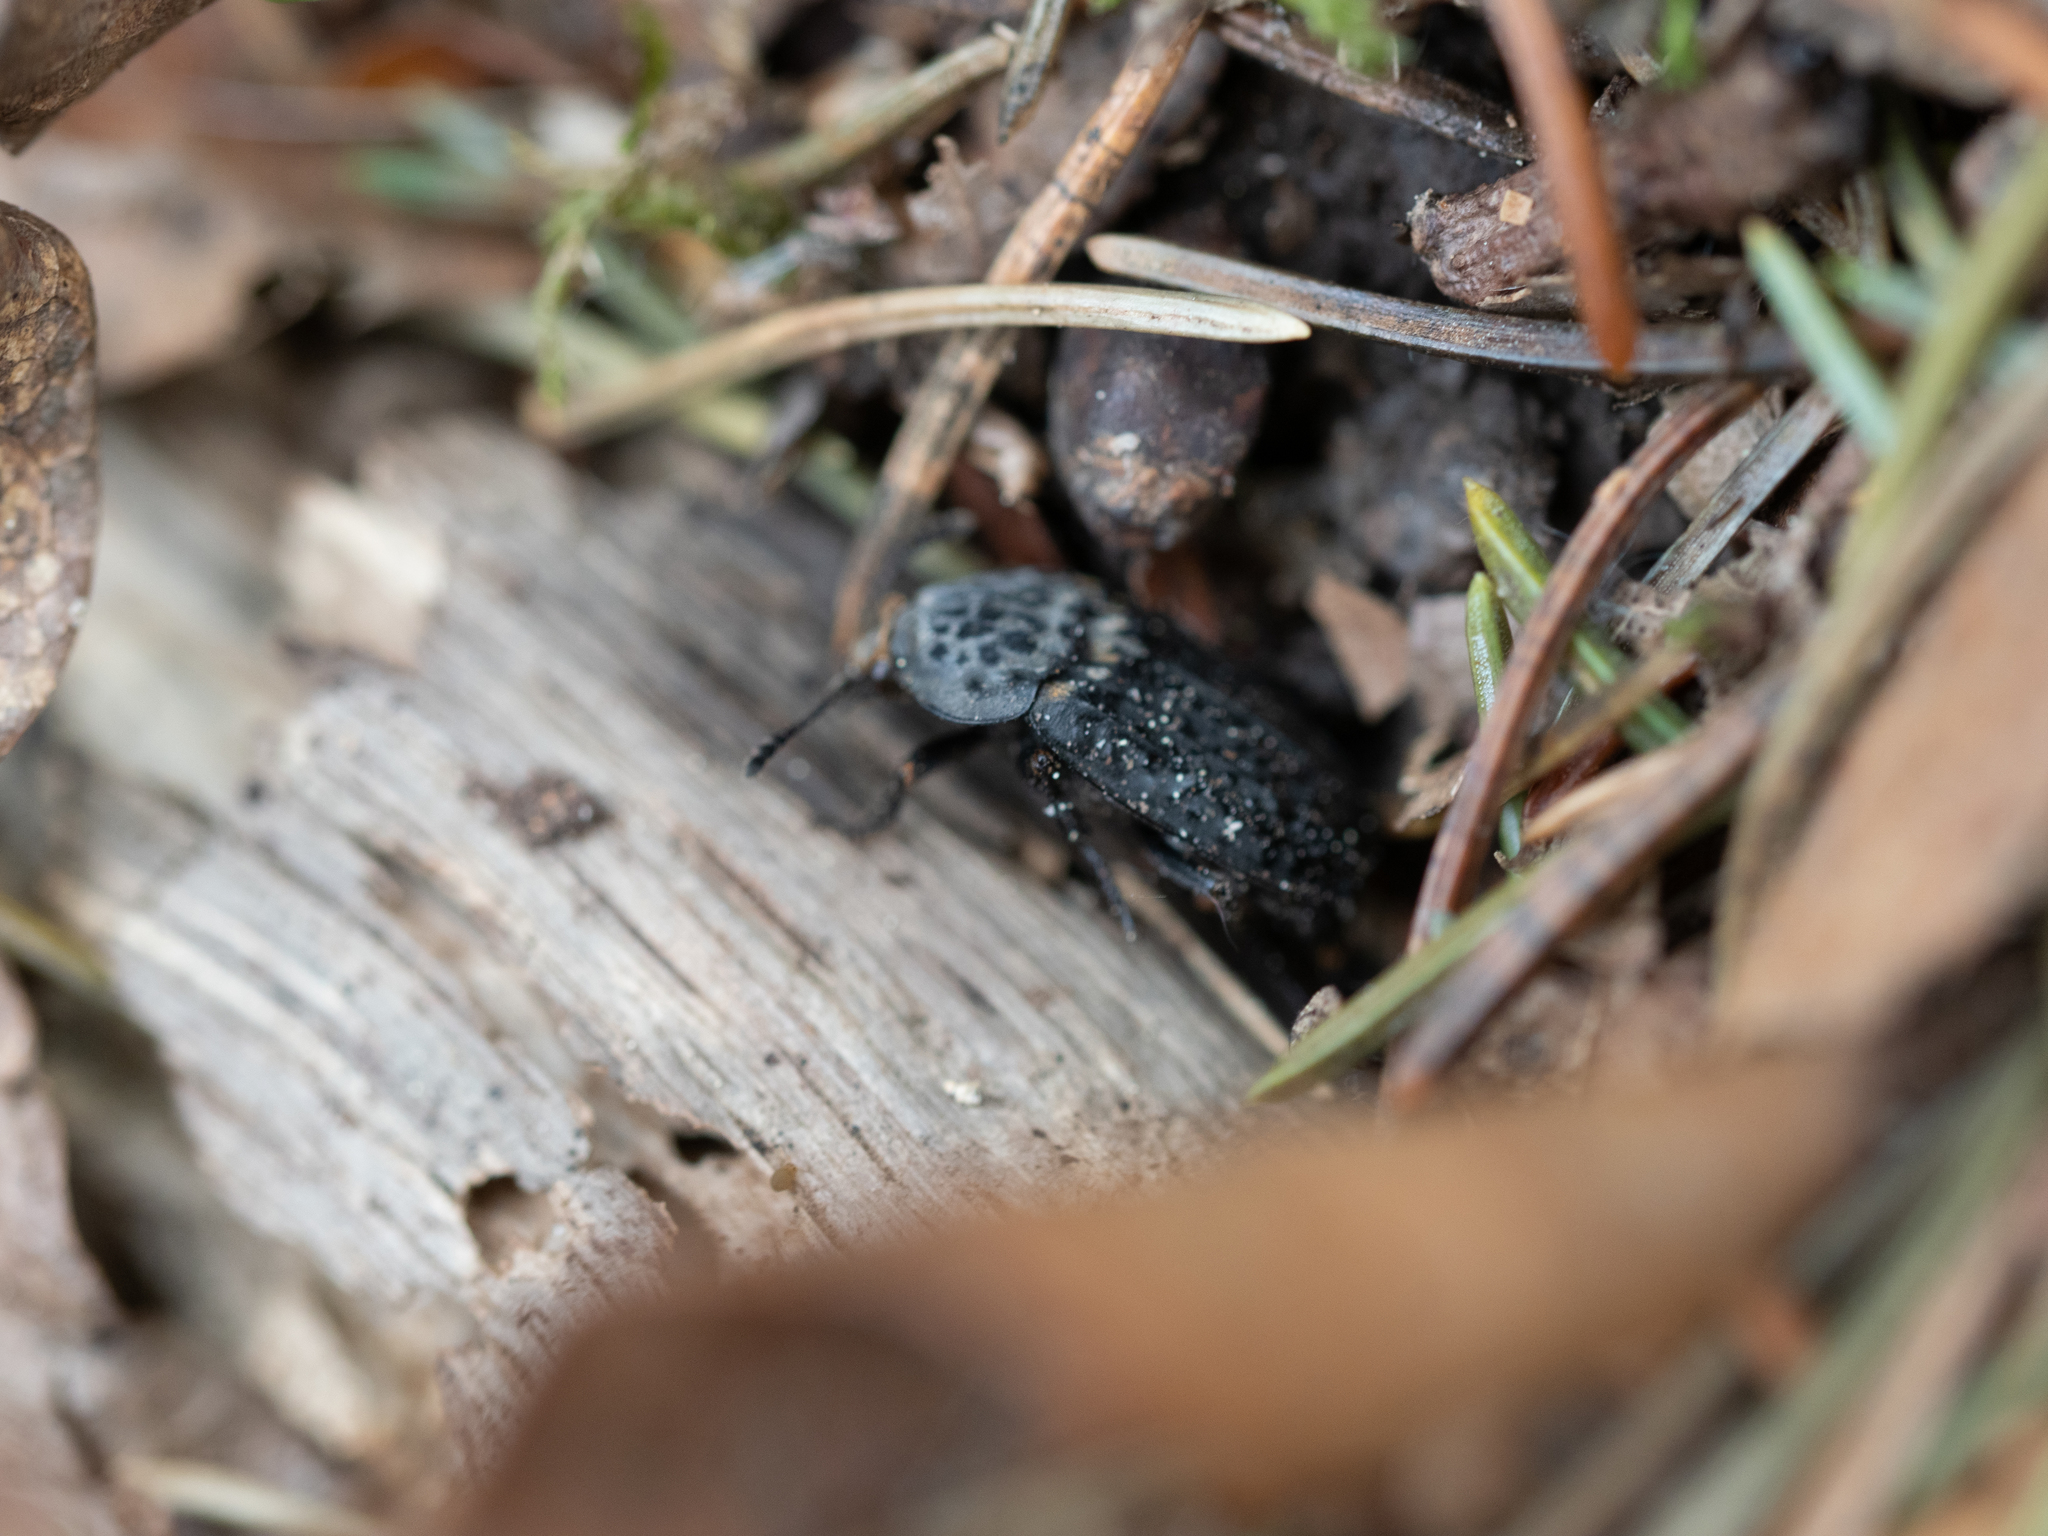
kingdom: Animalia
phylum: Arthropoda
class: Insecta
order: Coleoptera
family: Staphylinidae
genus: Thanatophilus
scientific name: Thanatophilus rugosus
